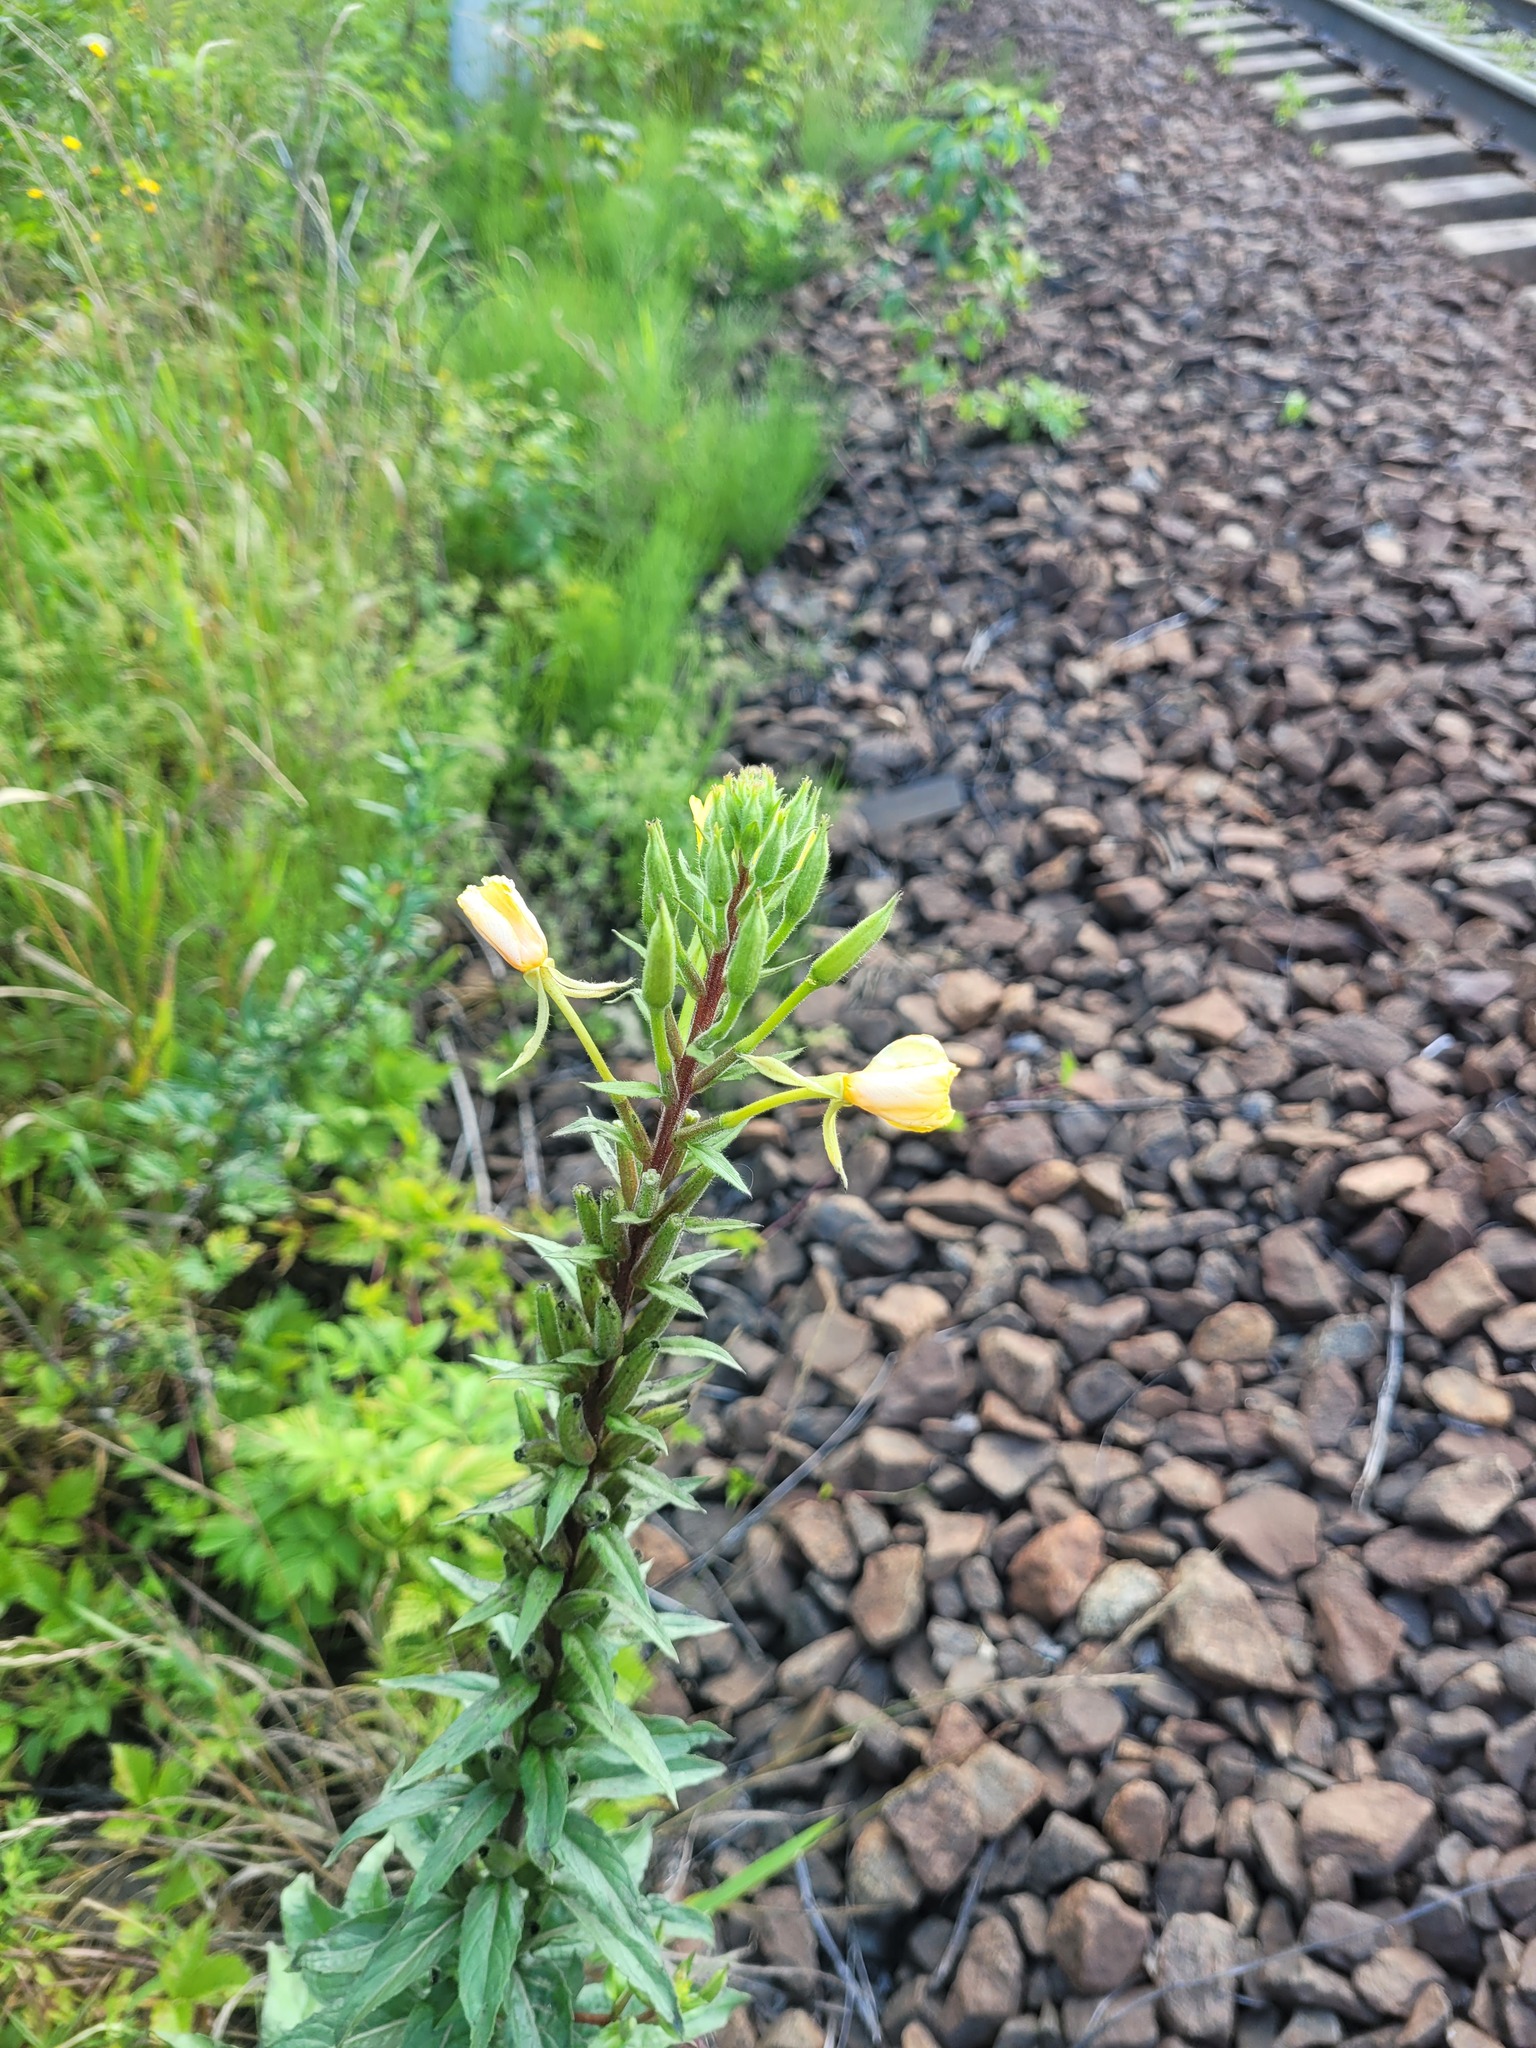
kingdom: Plantae
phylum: Tracheophyta
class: Magnoliopsida
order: Myrtales
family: Onagraceae
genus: Oenothera
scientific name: Oenothera rubricaulis
